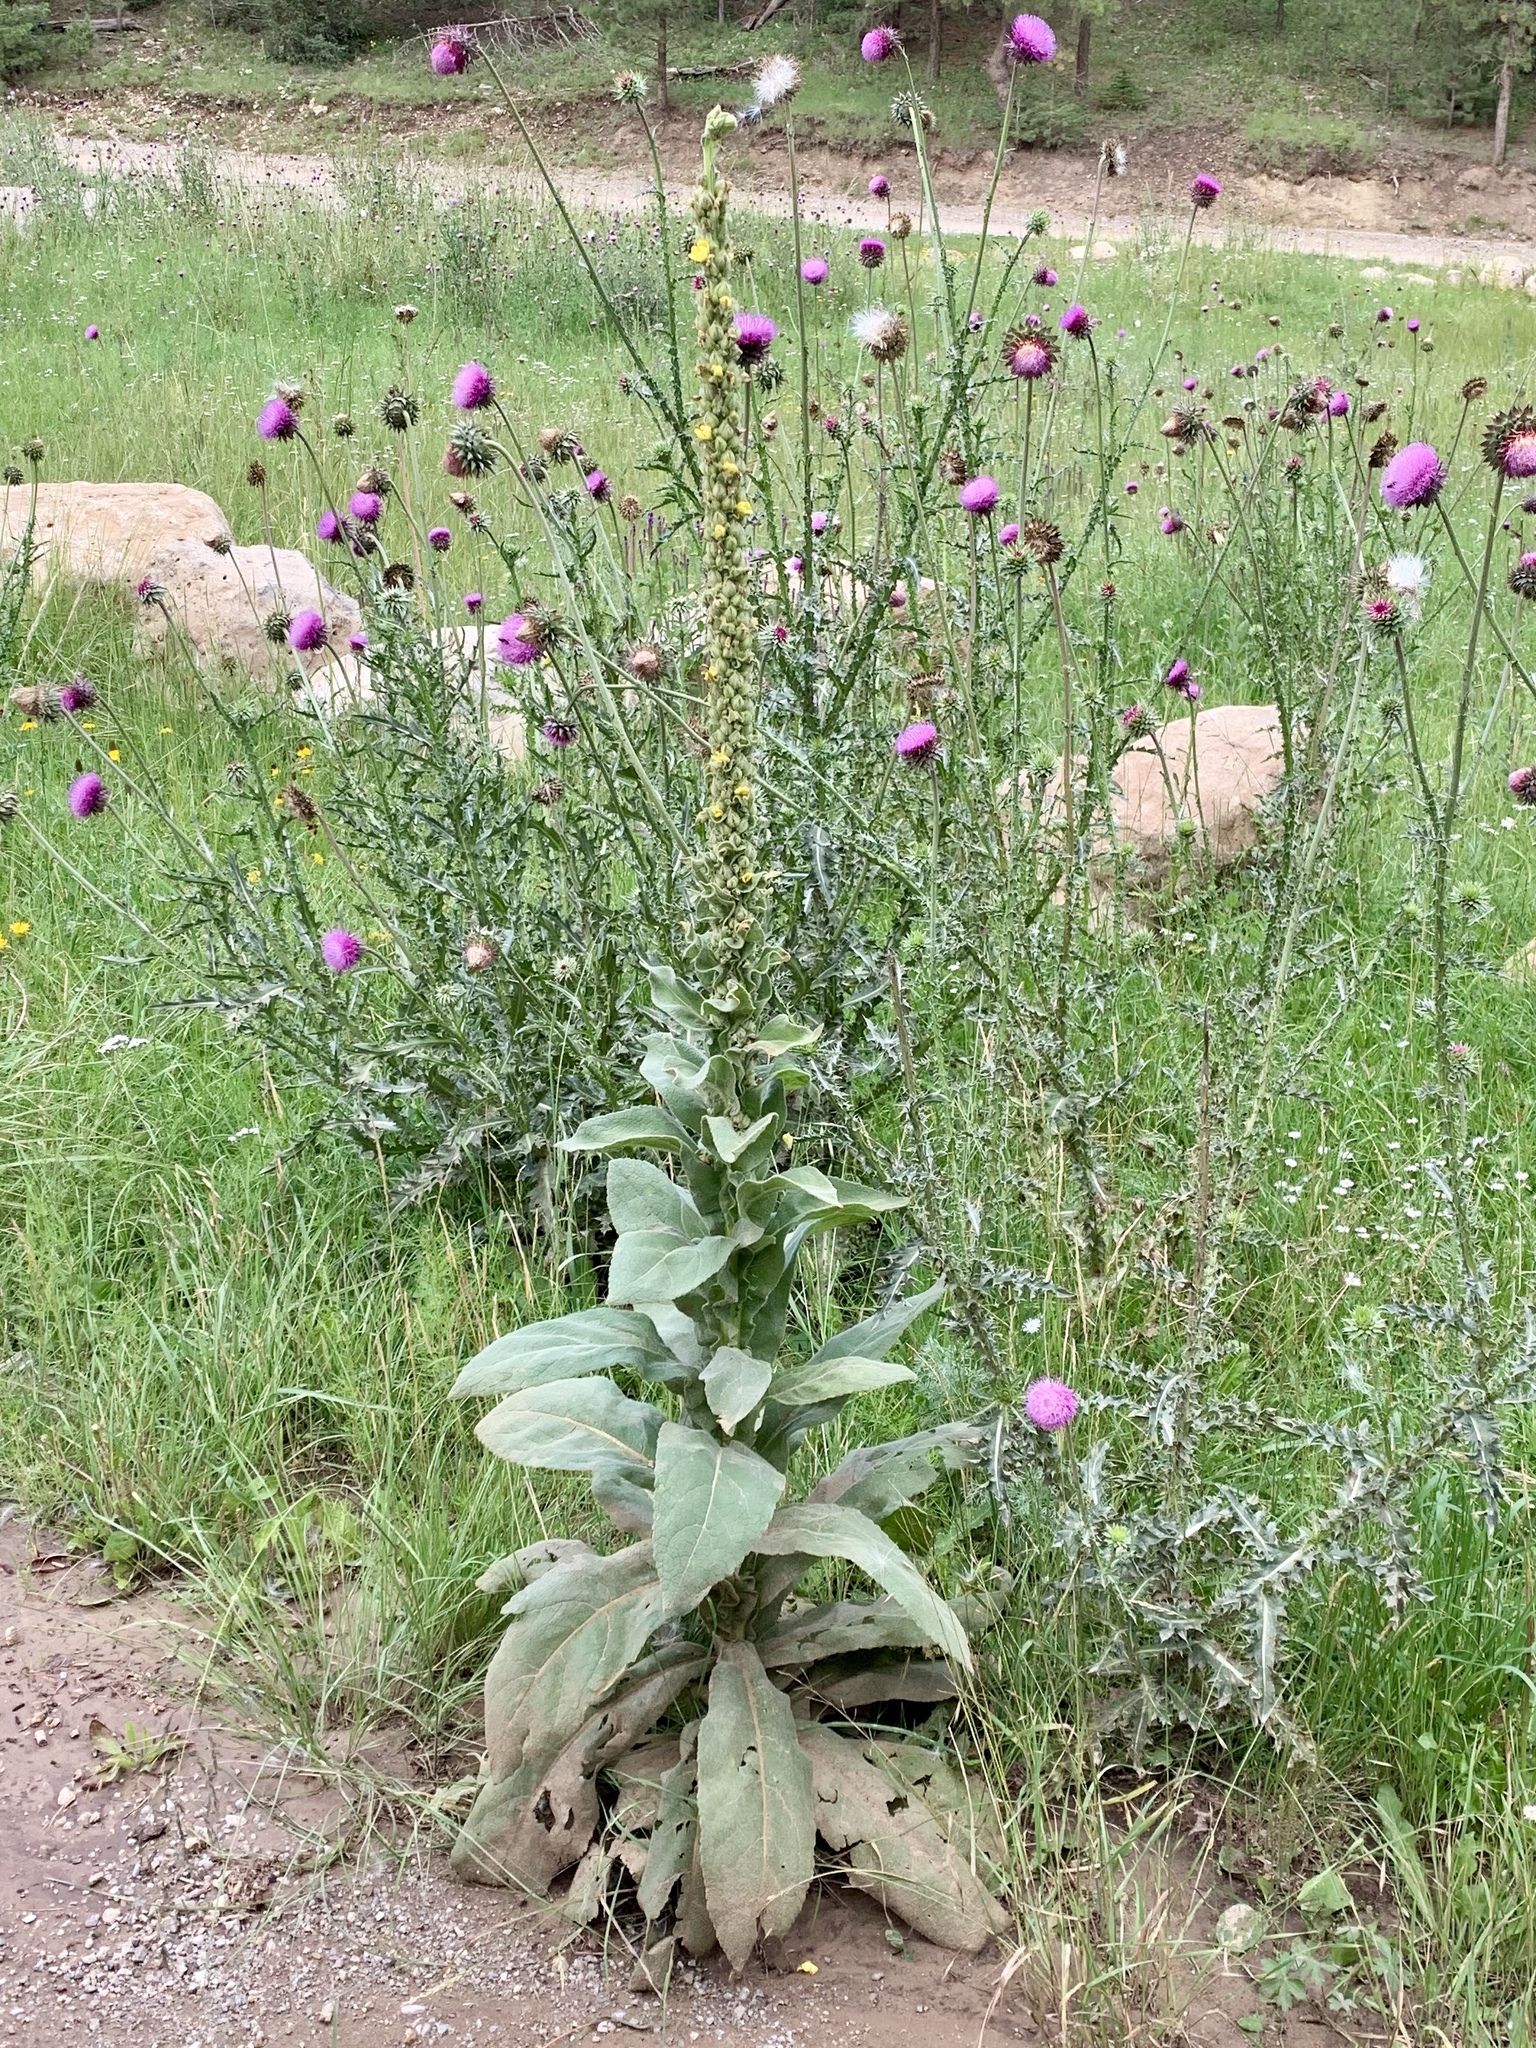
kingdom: Plantae
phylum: Tracheophyta
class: Magnoliopsida
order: Lamiales
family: Scrophulariaceae
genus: Verbascum
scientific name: Verbascum thapsus
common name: Common mullein
